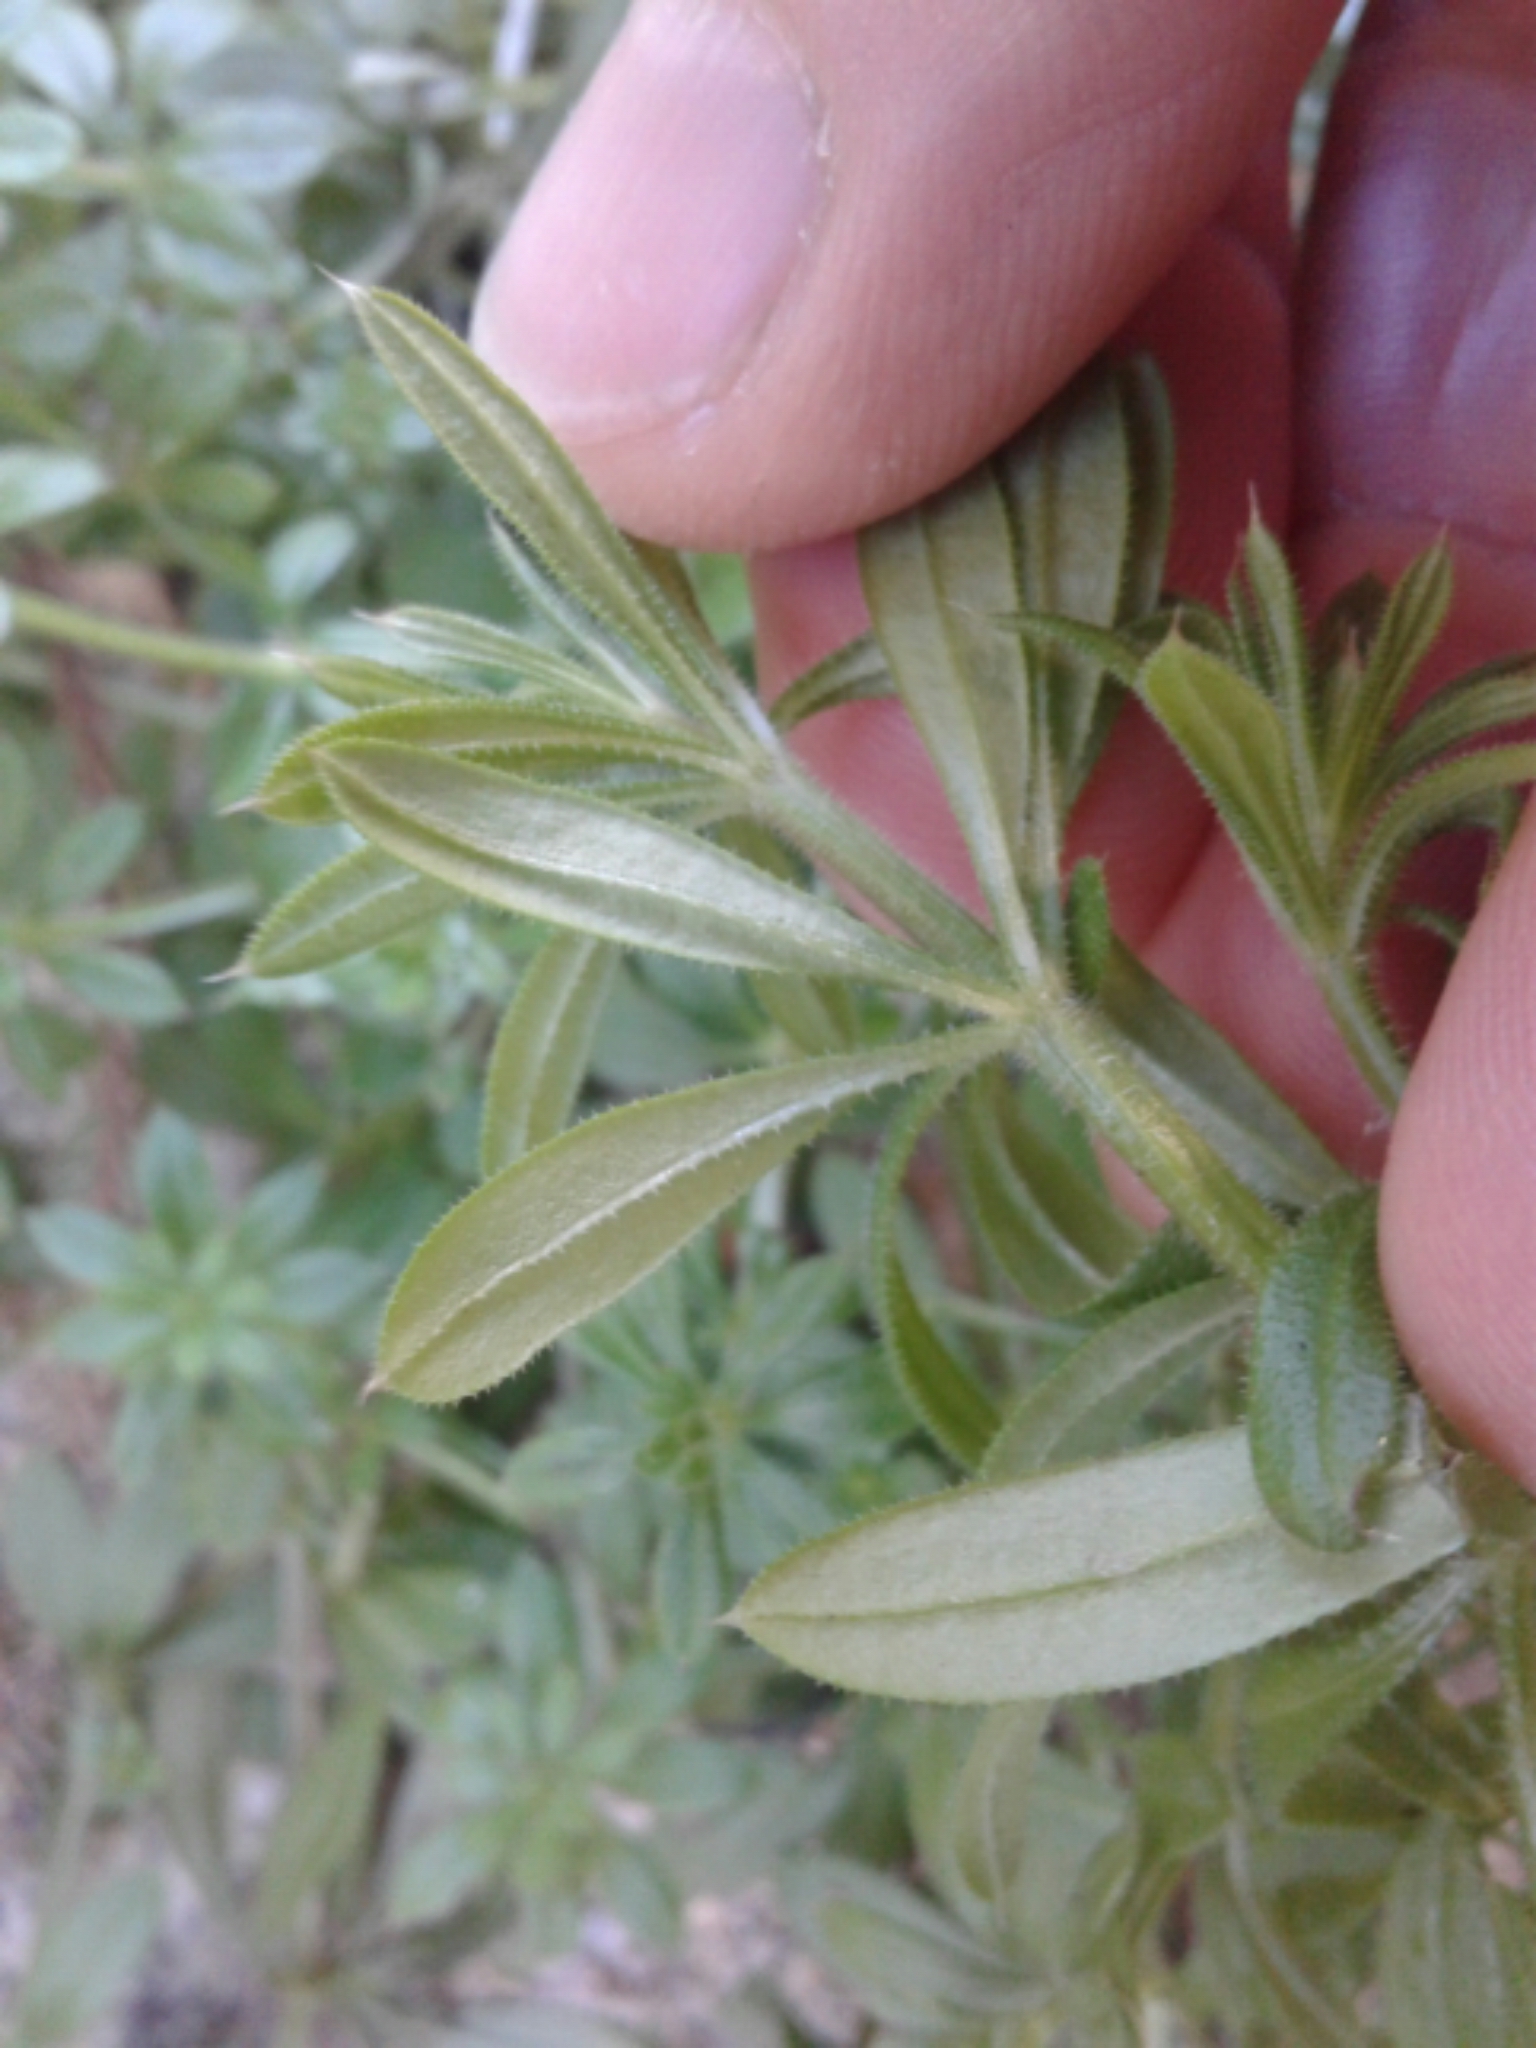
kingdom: Plantae
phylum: Tracheophyta
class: Magnoliopsida
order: Gentianales
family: Rubiaceae
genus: Galium
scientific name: Galium aparine
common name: Cleavers
